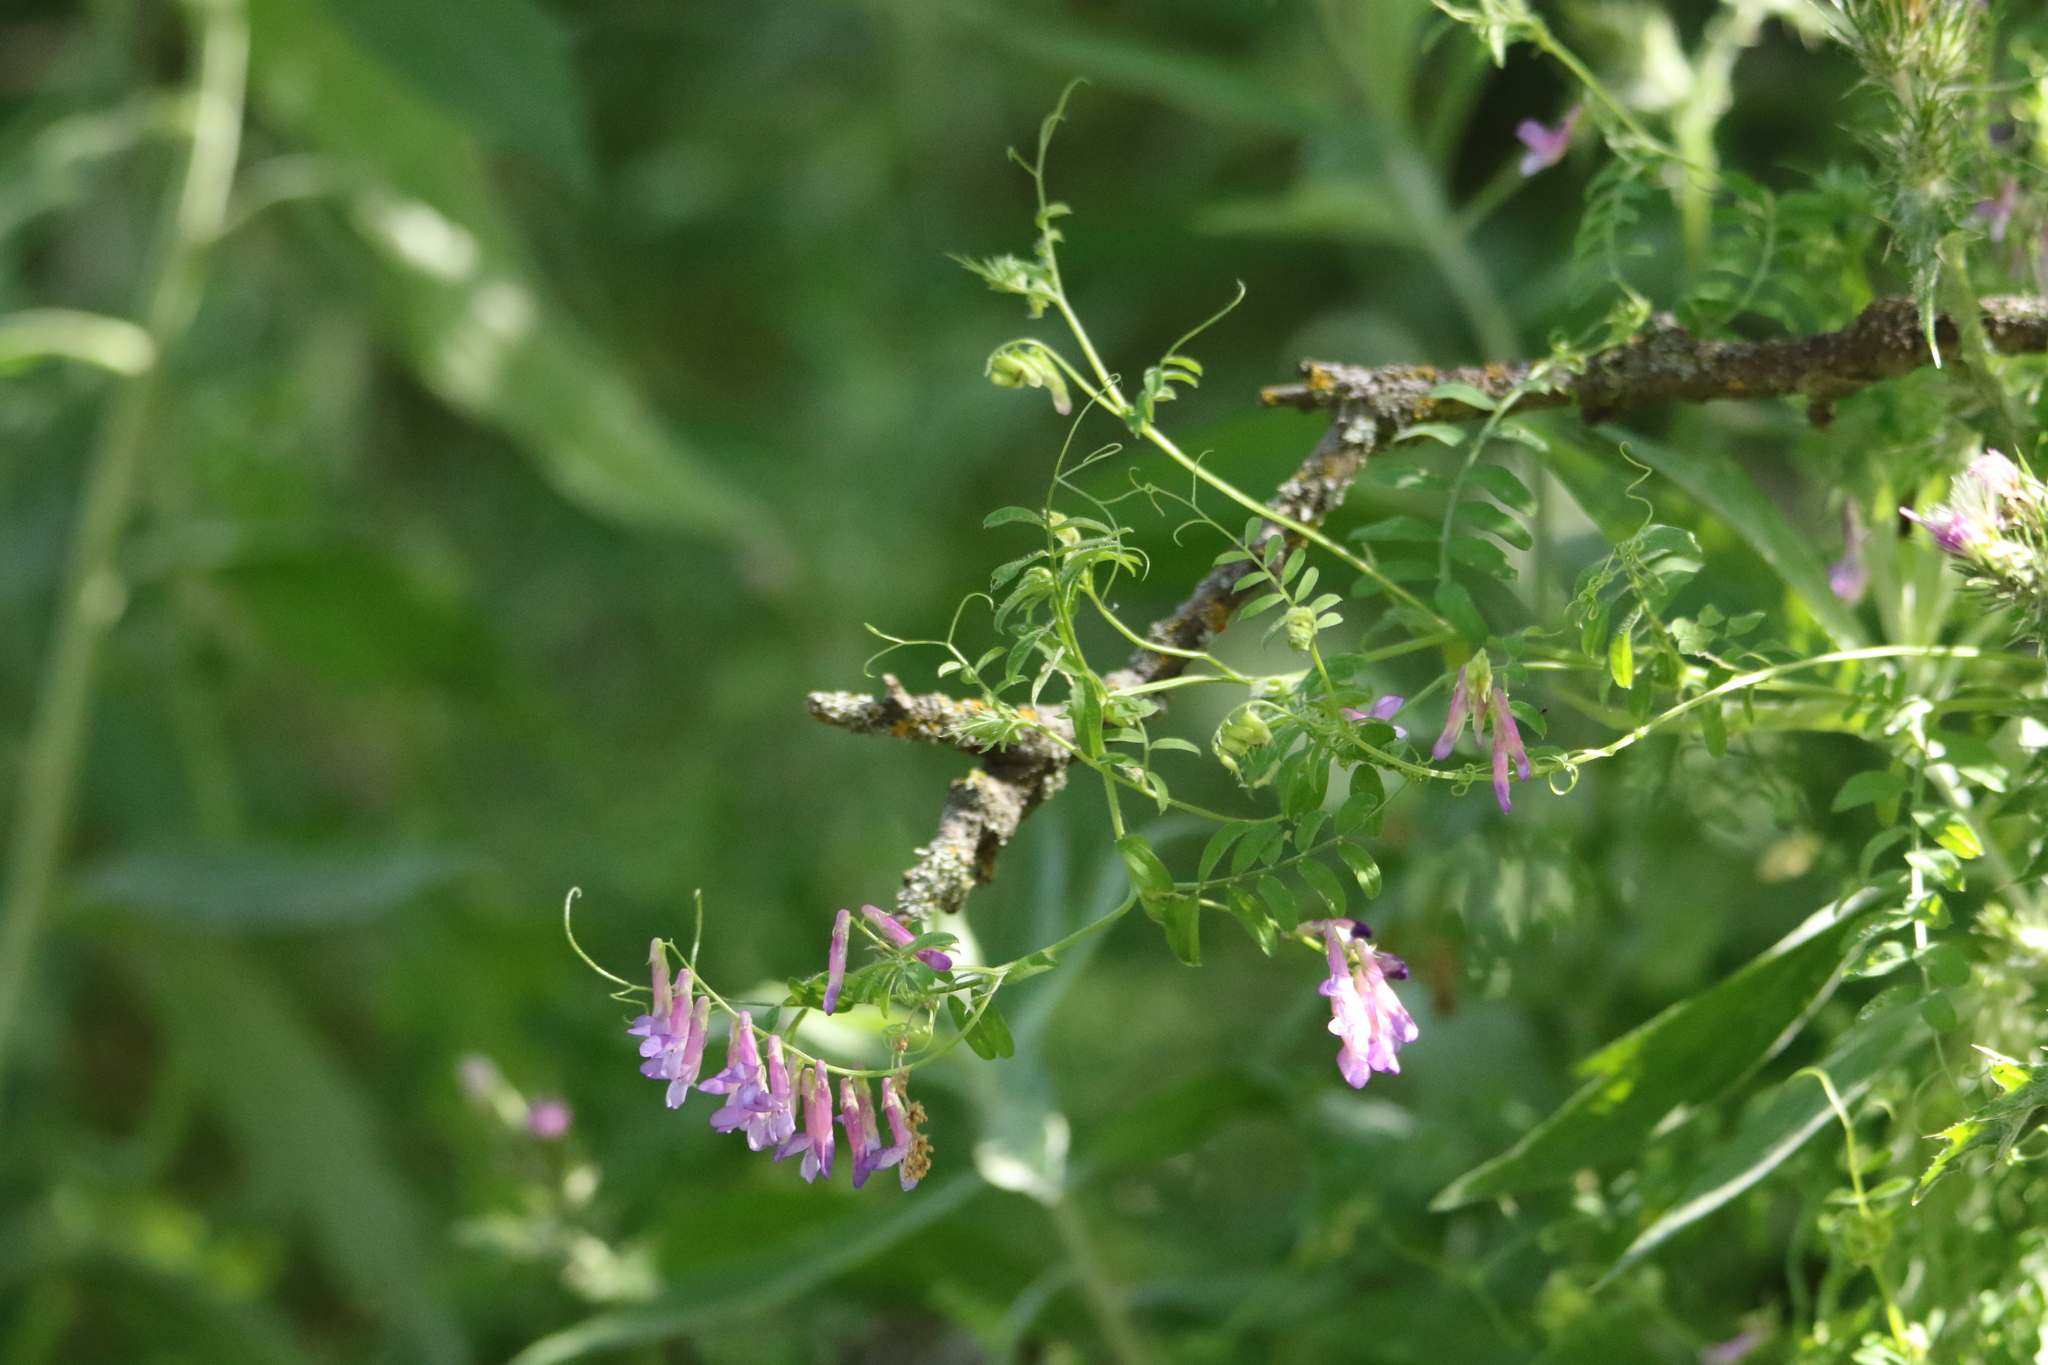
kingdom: Plantae
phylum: Tracheophyta
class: Magnoliopsida
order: Fabales
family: Fabaceae
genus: Vicia
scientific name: Vicia villosa
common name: Fodder vetch
